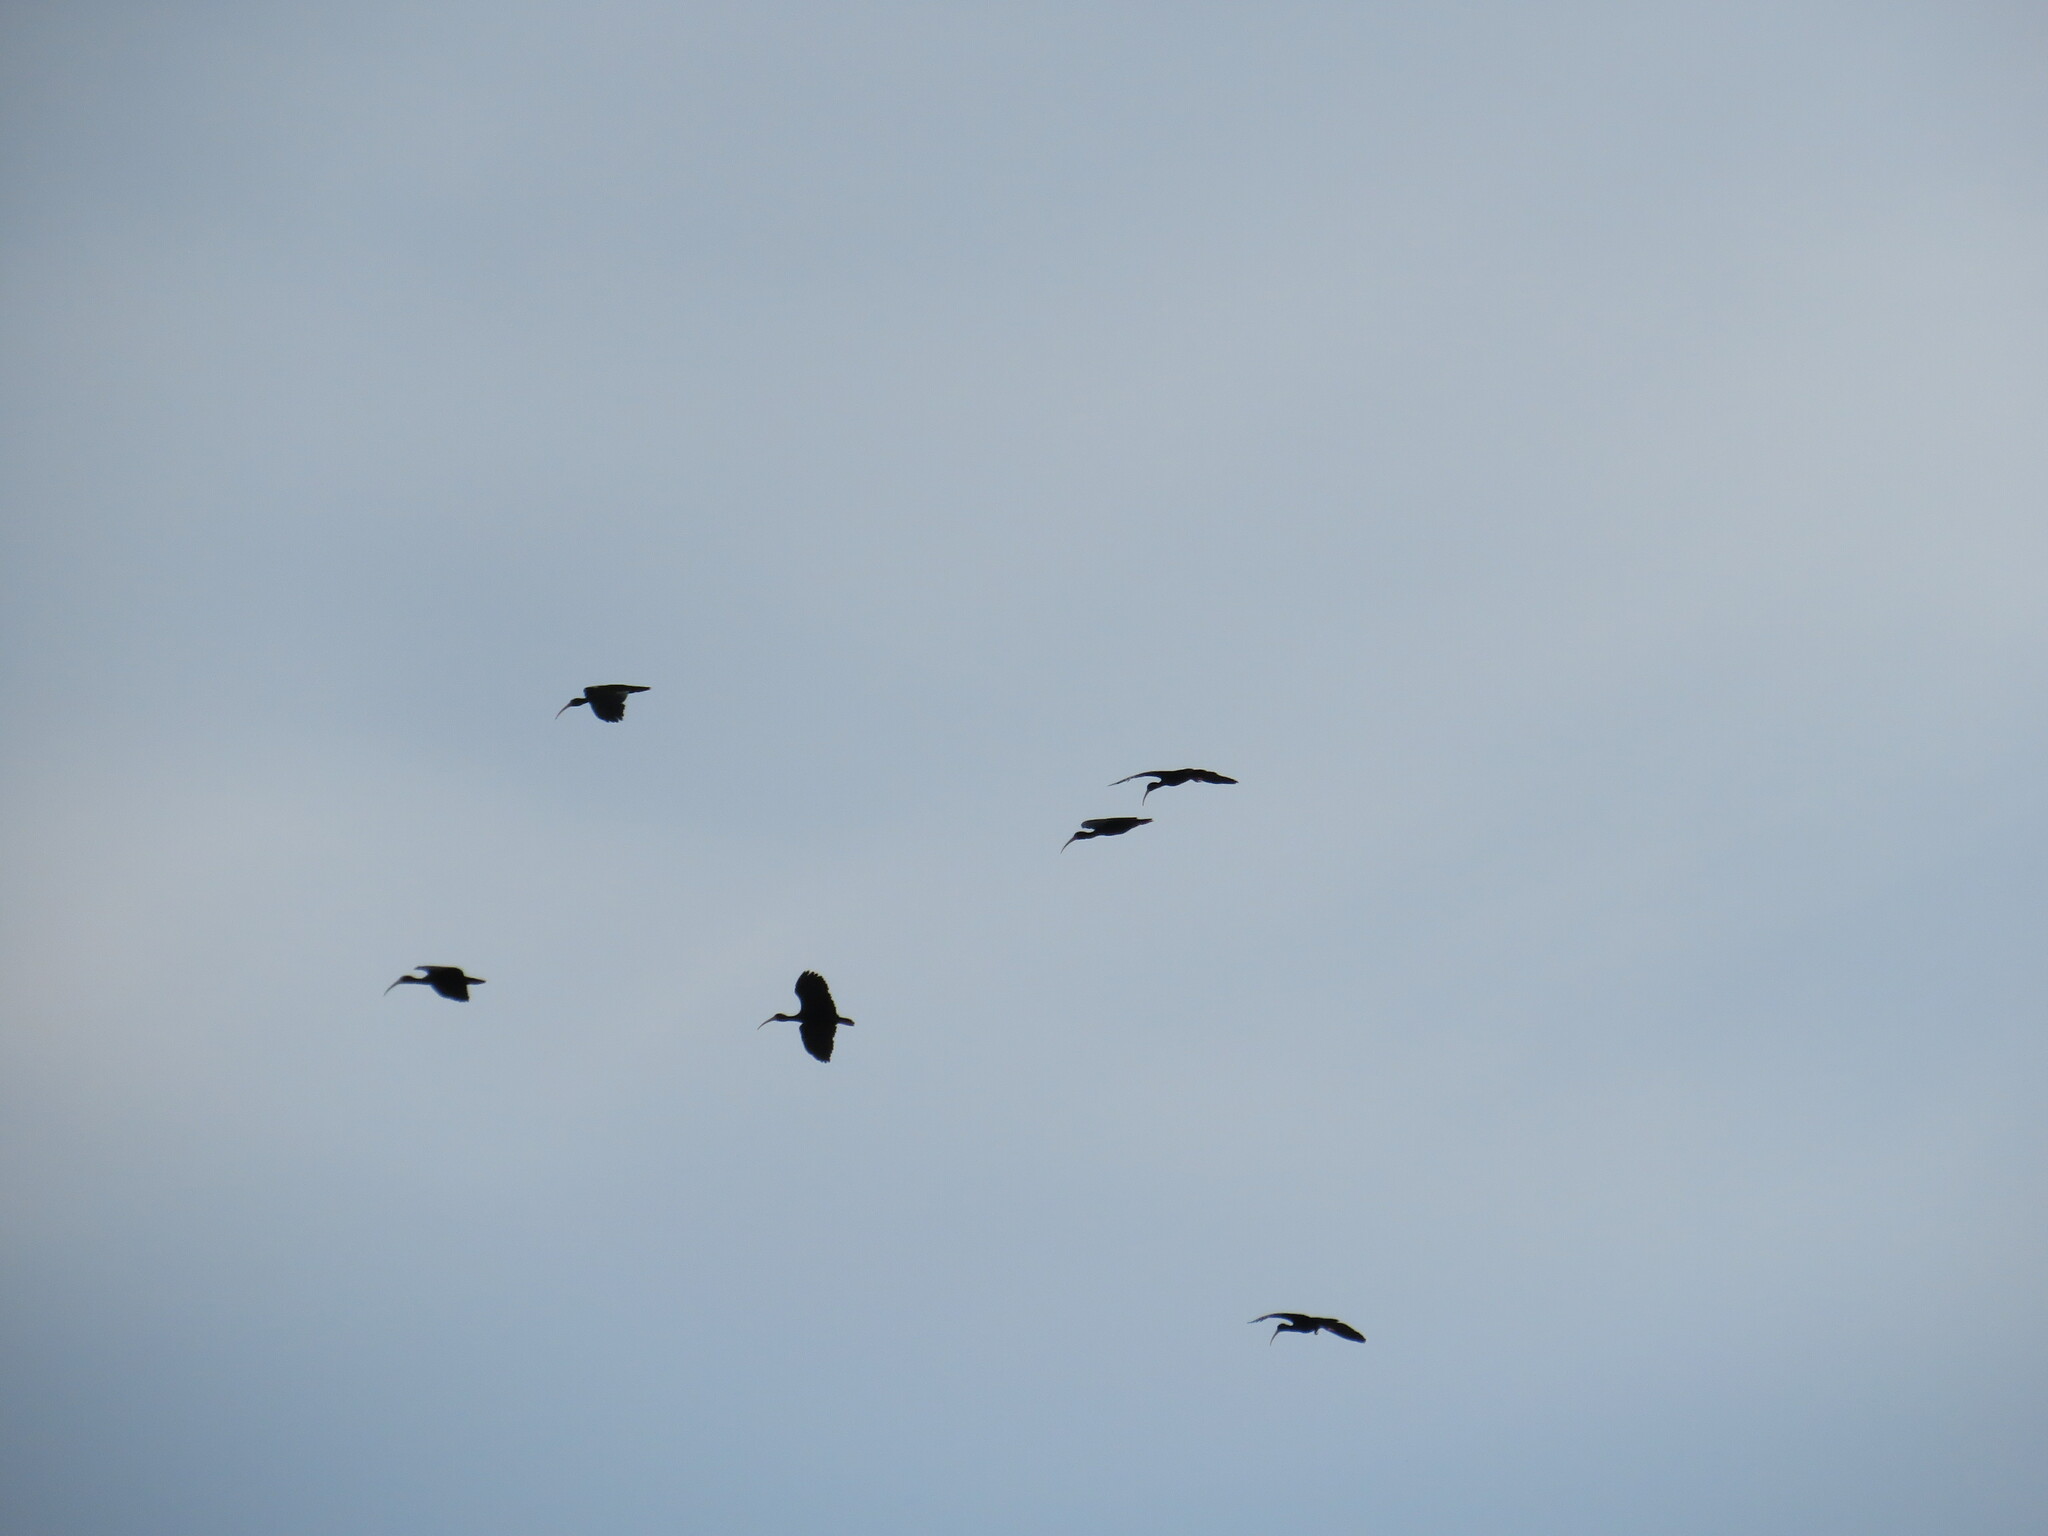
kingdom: Animalia
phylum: Chordata
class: Aves
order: Pelecaniformes
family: Threskiornithidae
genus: Phimosus
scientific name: Phimosus infuscatus
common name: Bare-faced ibis
